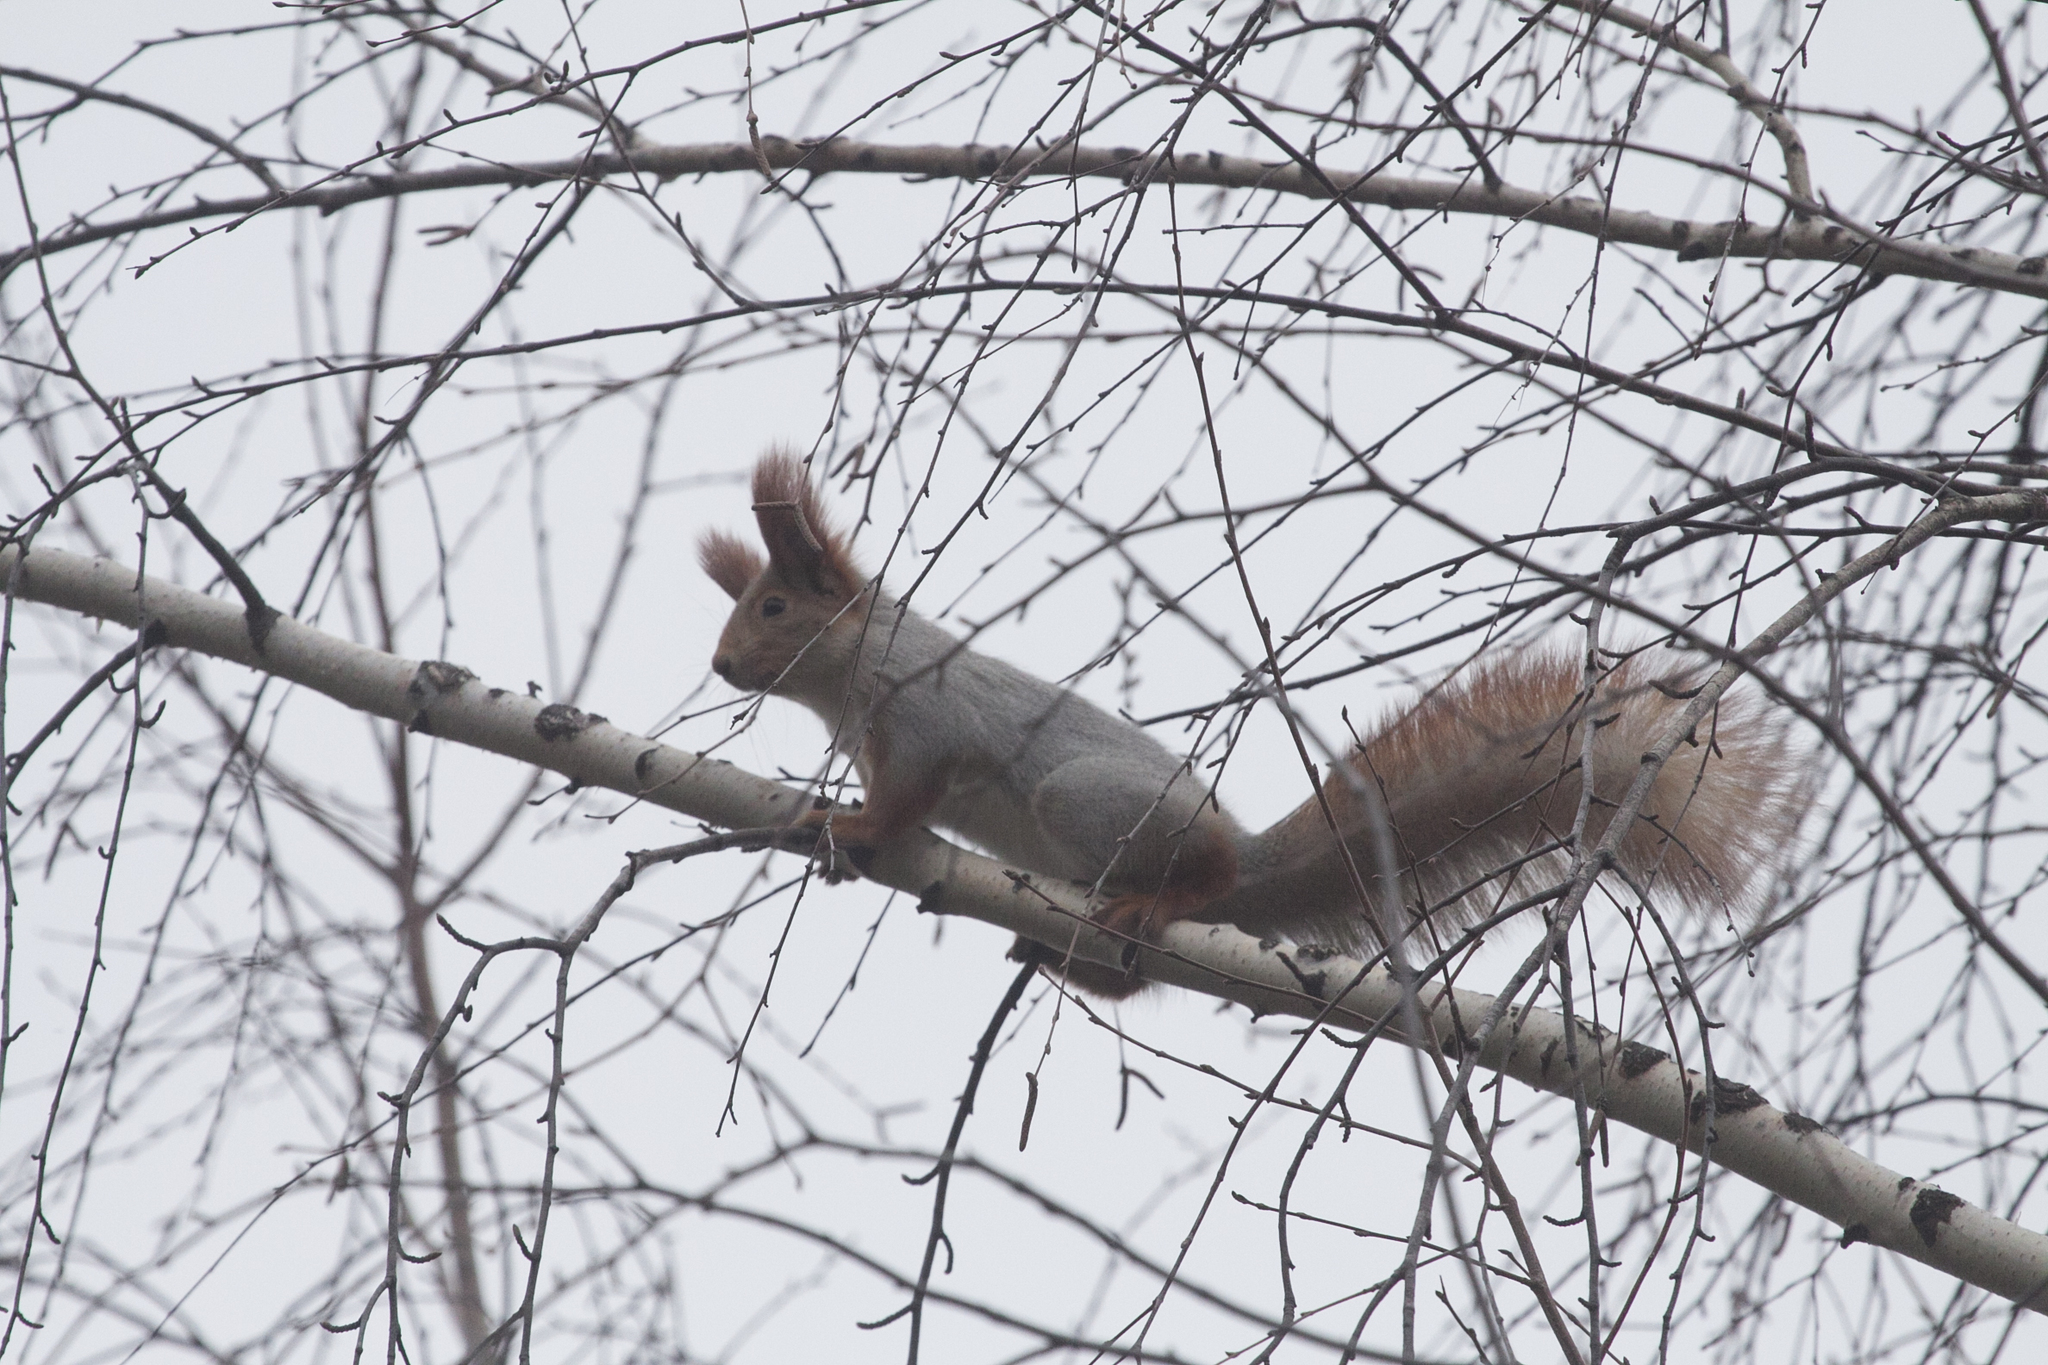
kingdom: Animalia
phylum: Chordata
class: Mammalia
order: Rodentia
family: Sciuridae
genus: Sciurus
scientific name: Sciurus vulgaris
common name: Eurasian red squirrel
